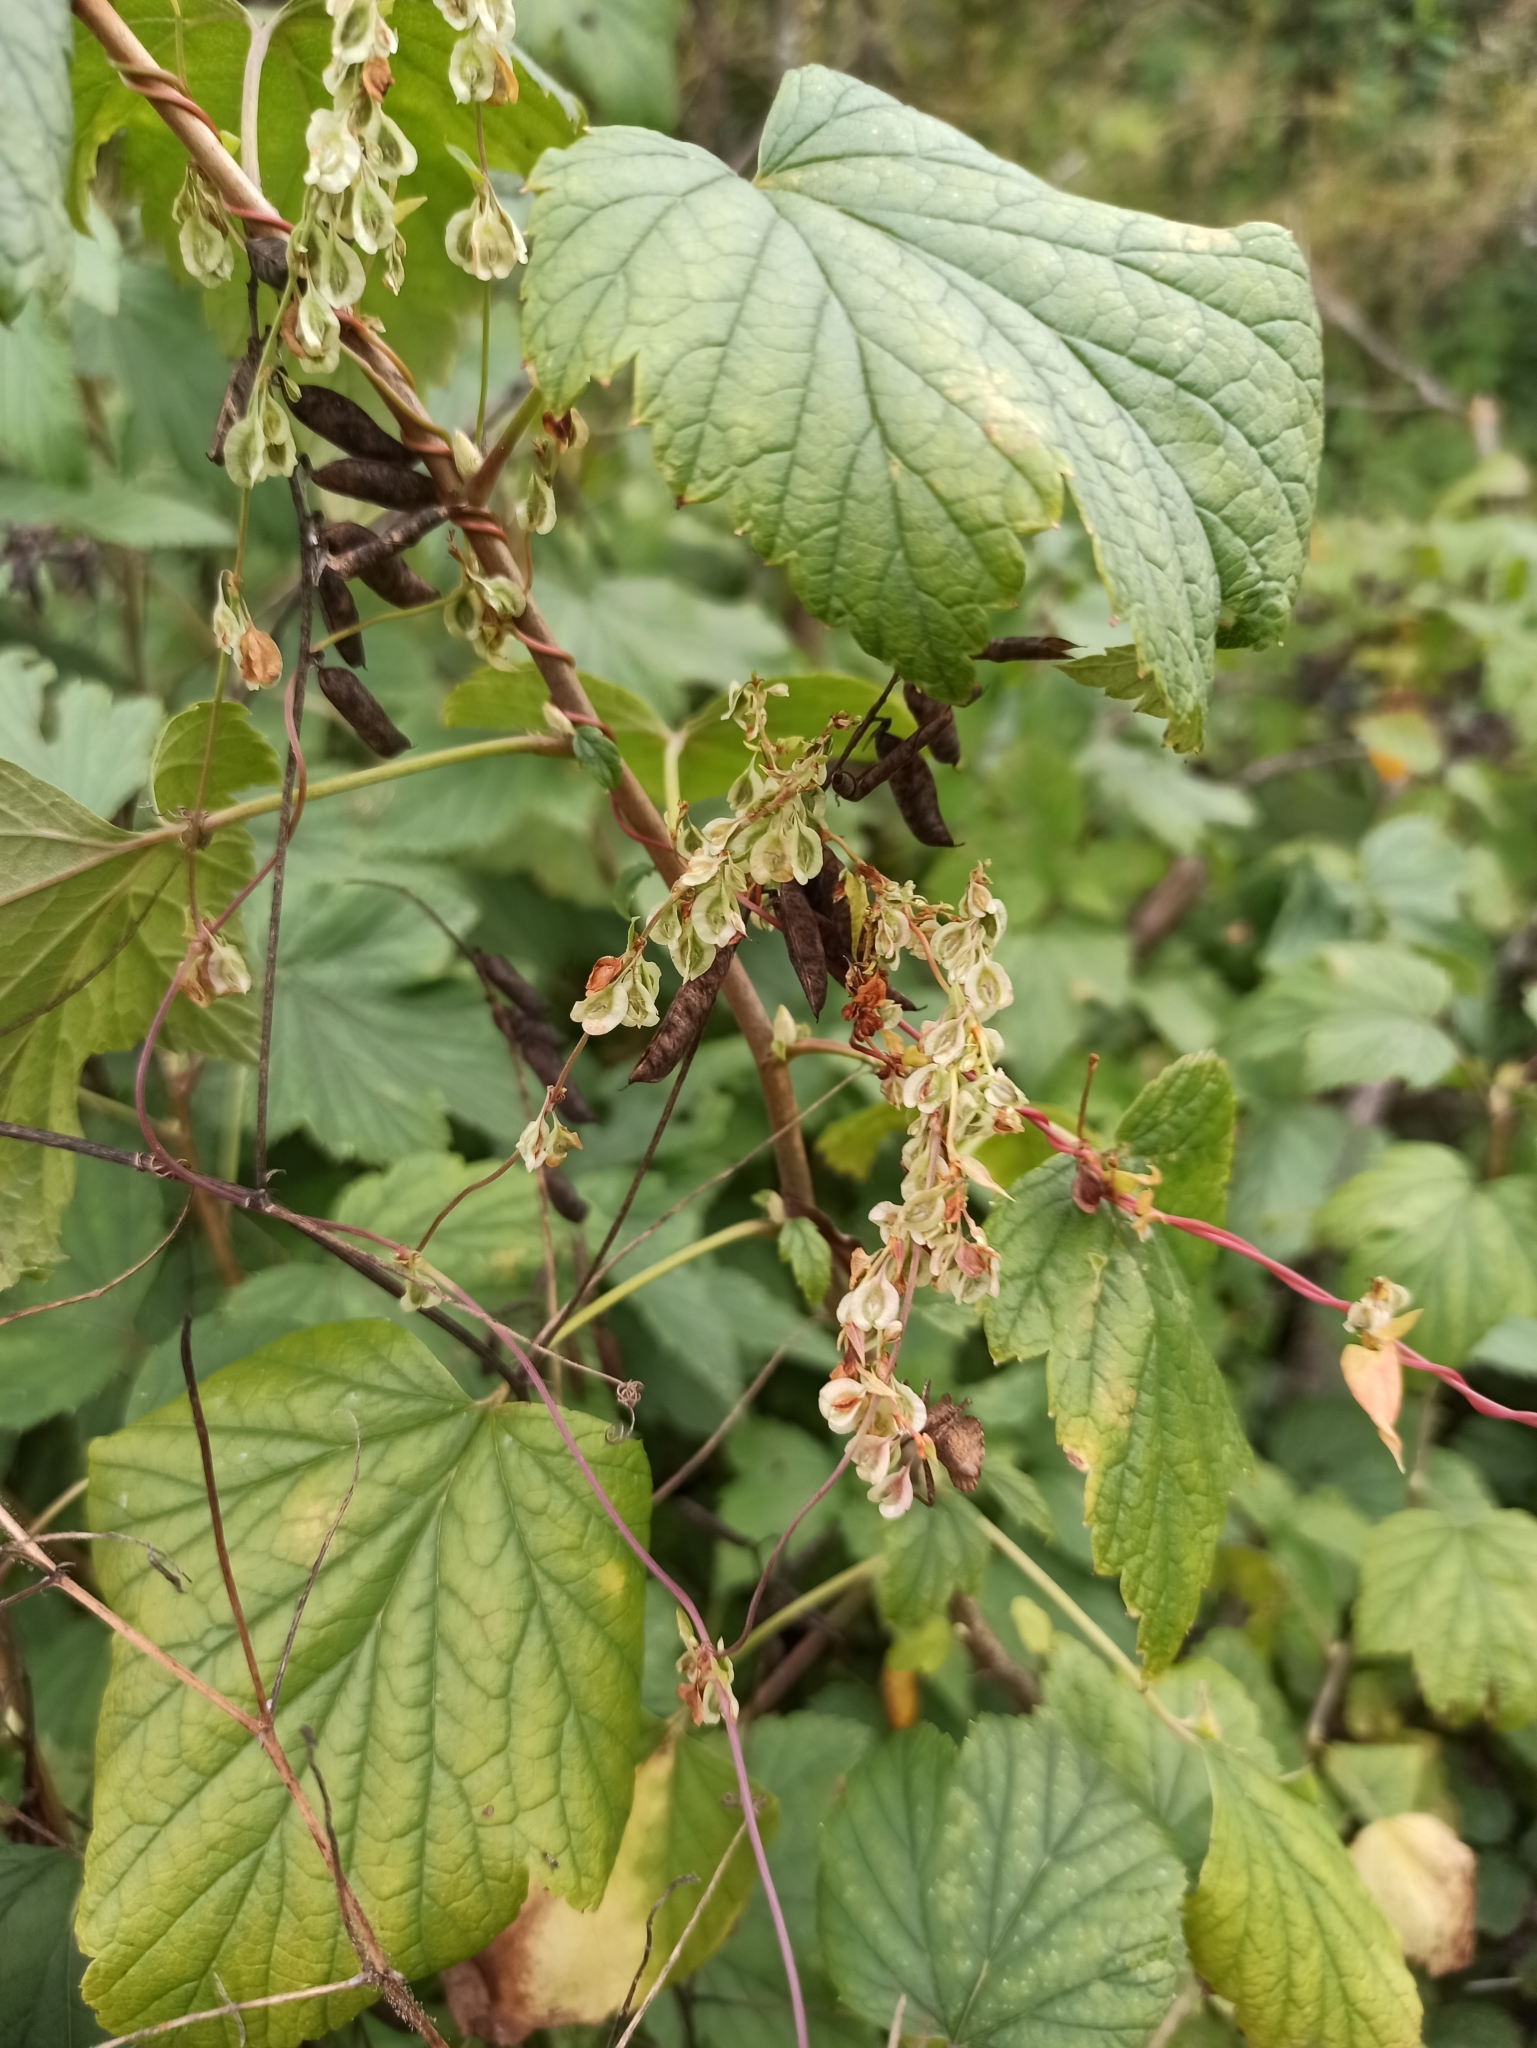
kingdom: Plantae
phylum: Tracheophyta
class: Magnoliopsida
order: Caryophyllales
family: Polygonaceae
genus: Fallopia
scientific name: Fallopia dumetorum
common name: Copse-bindweed
